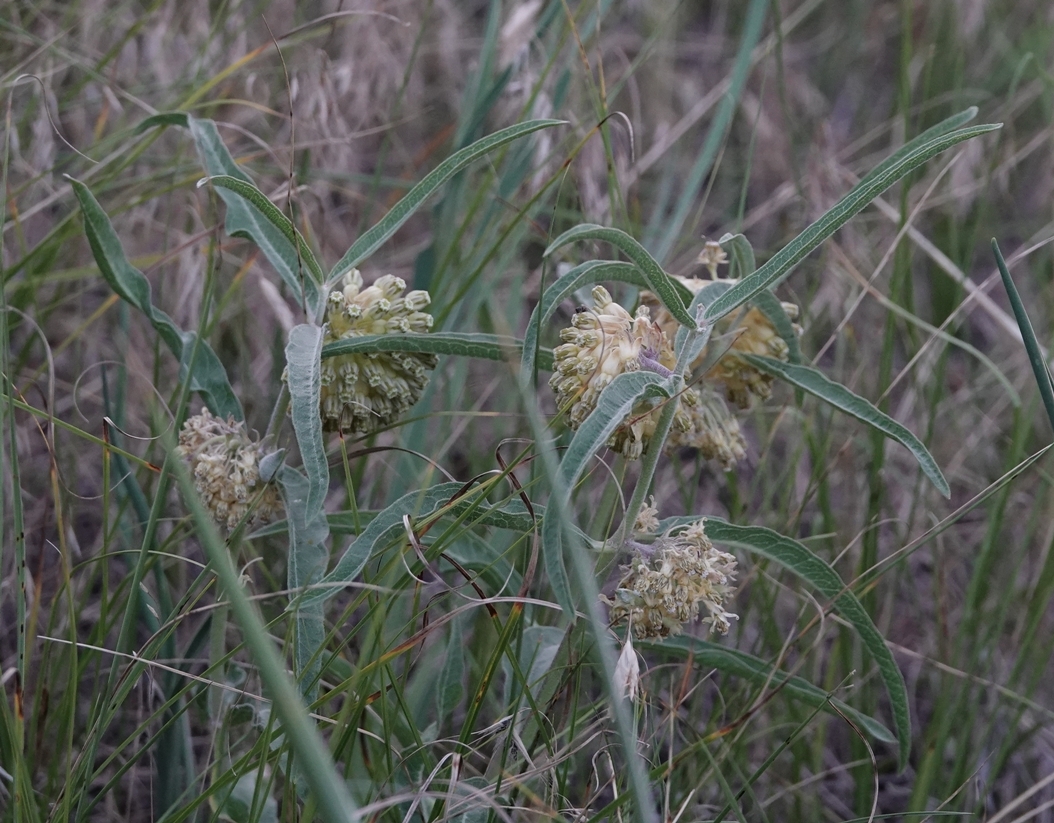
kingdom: Plantae
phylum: Tracheophyta
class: Magnoliopsida
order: Gentianales
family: Apocynaceae
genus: Asclepias
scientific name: Asclepias viridiflora
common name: Green comet milkweed
